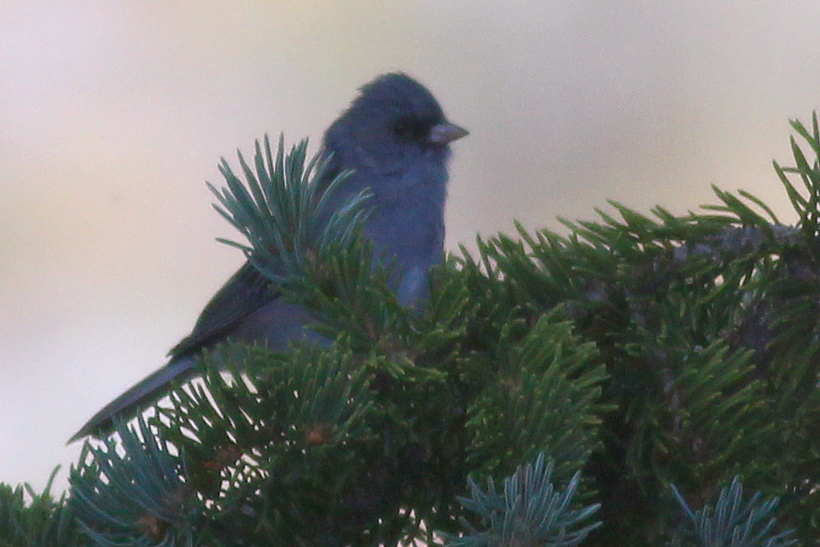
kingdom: Animalia
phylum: Chordata
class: Aves
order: Passeriformes
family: Passerellidae
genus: Junco
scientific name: Junco hyemalis
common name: Dark-eyed junco
